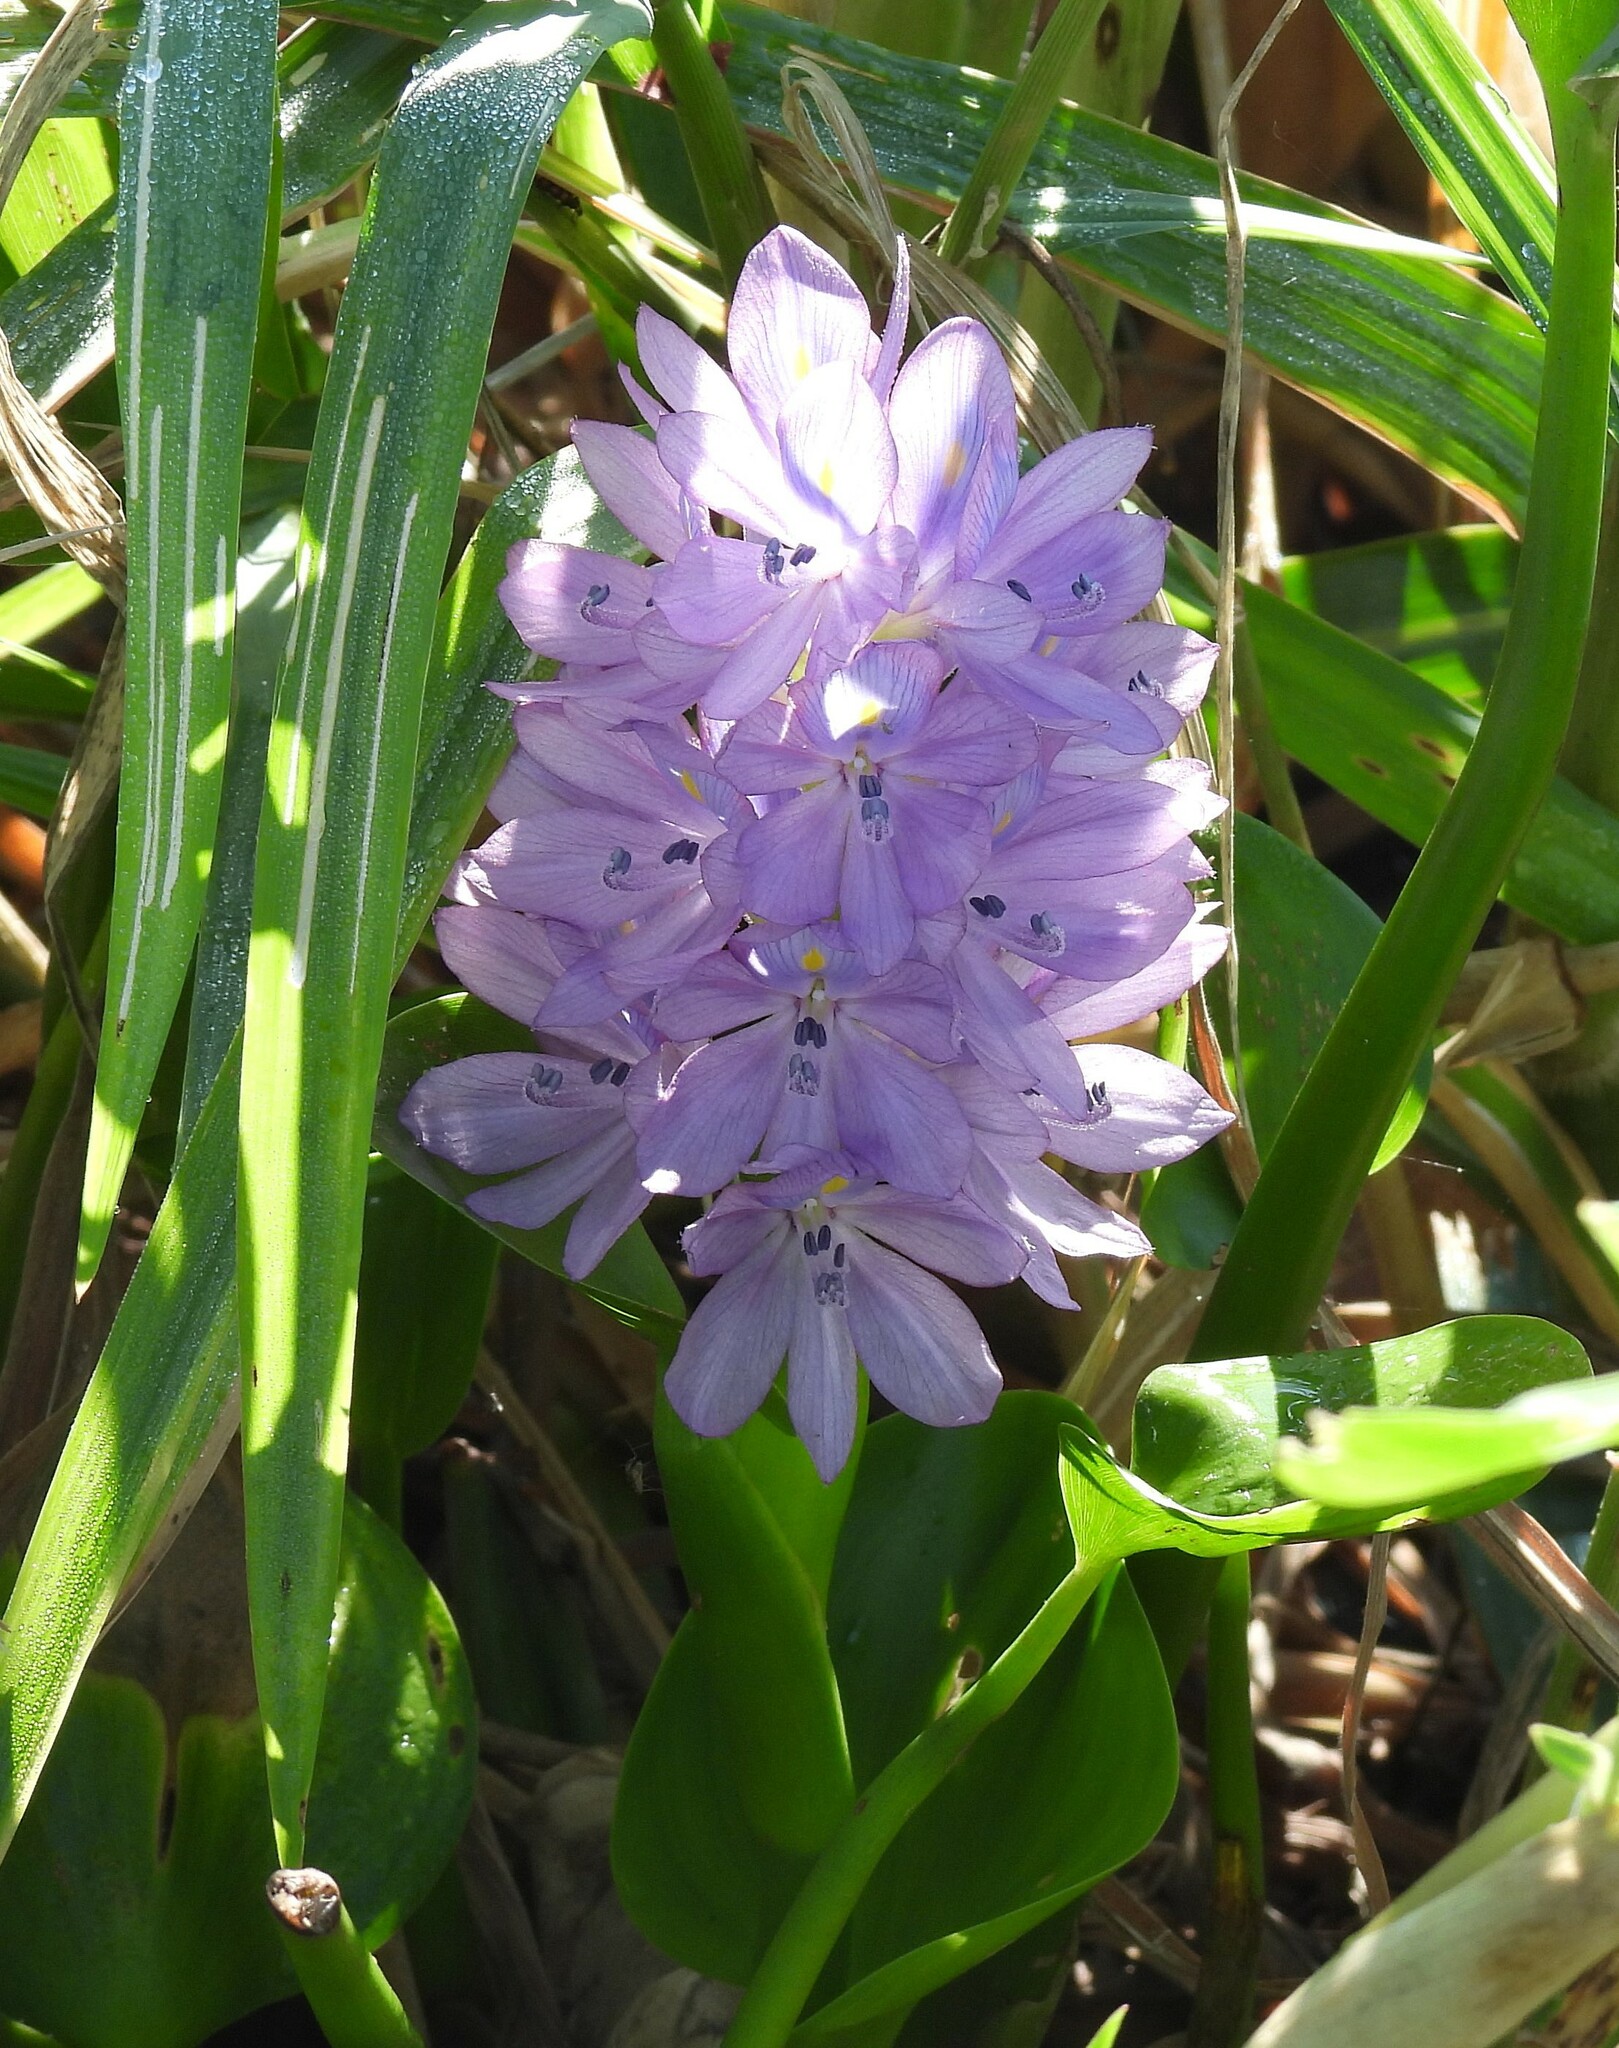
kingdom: Plantae
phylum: Tracheophyta
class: Liliopsida
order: Commelinales
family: Pontederiaceae
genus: Pontederia
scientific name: Pontederia crassipes
